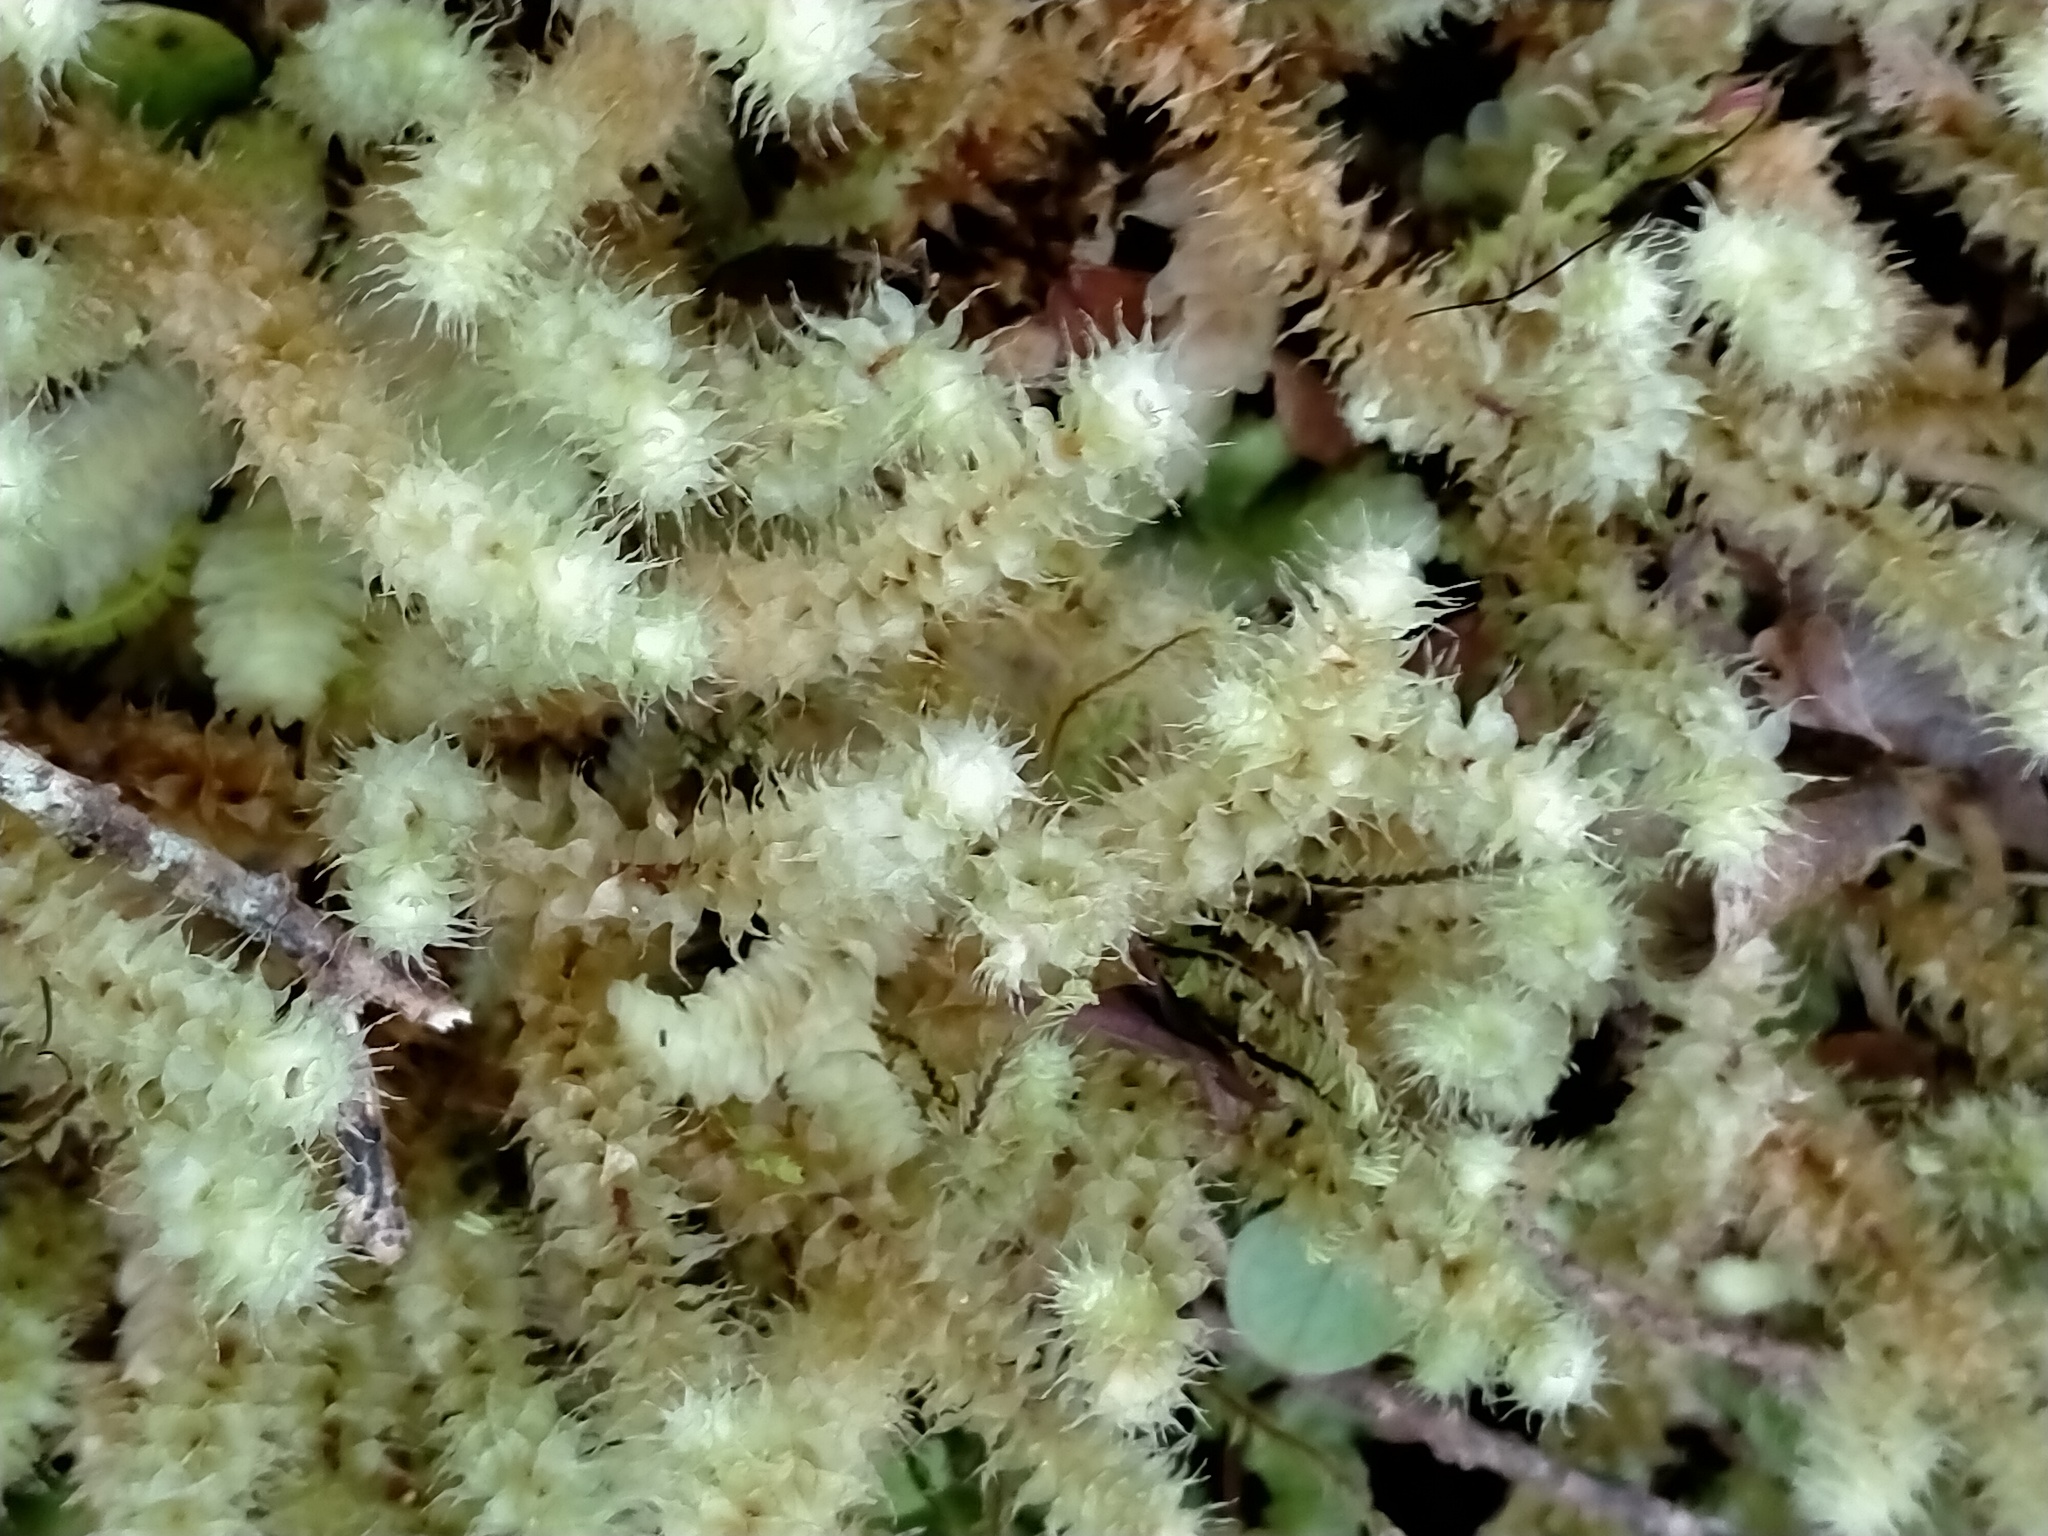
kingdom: Plantae
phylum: Bryophyta
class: Bryopsida
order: Ptychomniales
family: Ptychomniaceae
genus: Ptychomnion
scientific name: Ptychomnion aciculare
